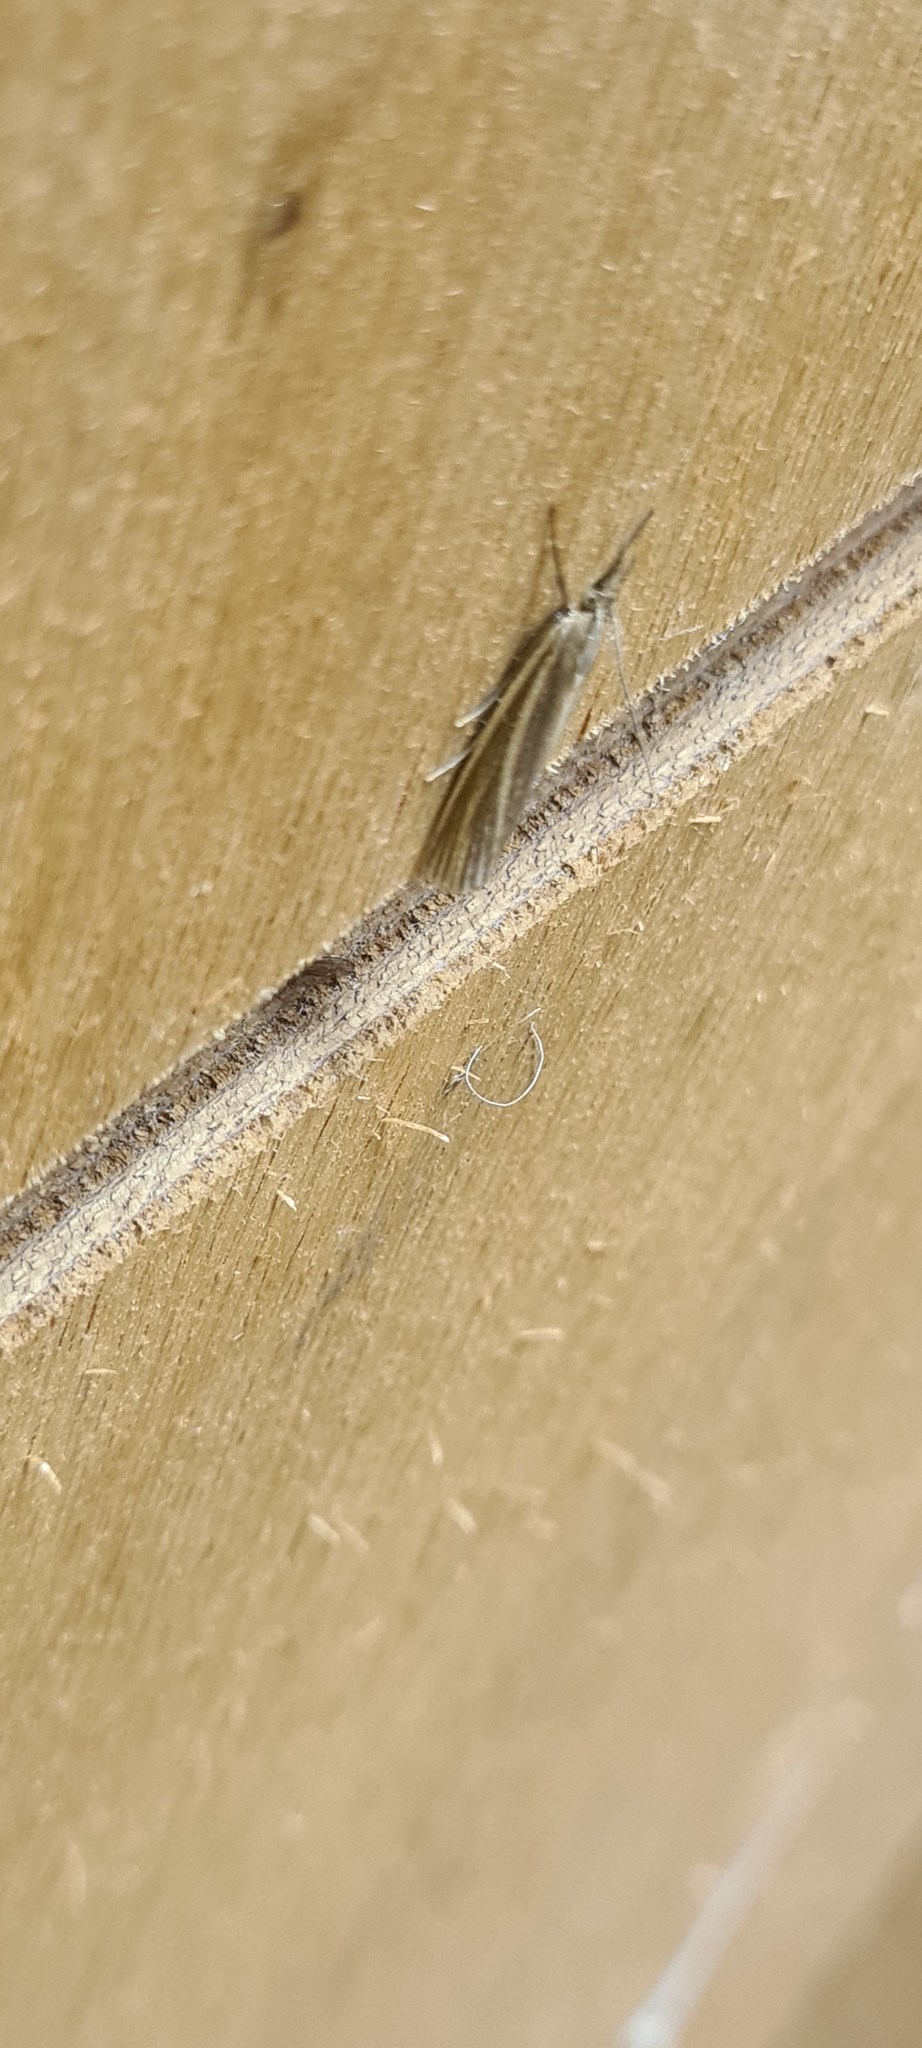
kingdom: Animalia
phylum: Arthropoda
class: Insecta
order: Lepidoptera
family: Crambidae
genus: Crambus
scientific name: Crambus perlellus
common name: Yellow satin veneer
